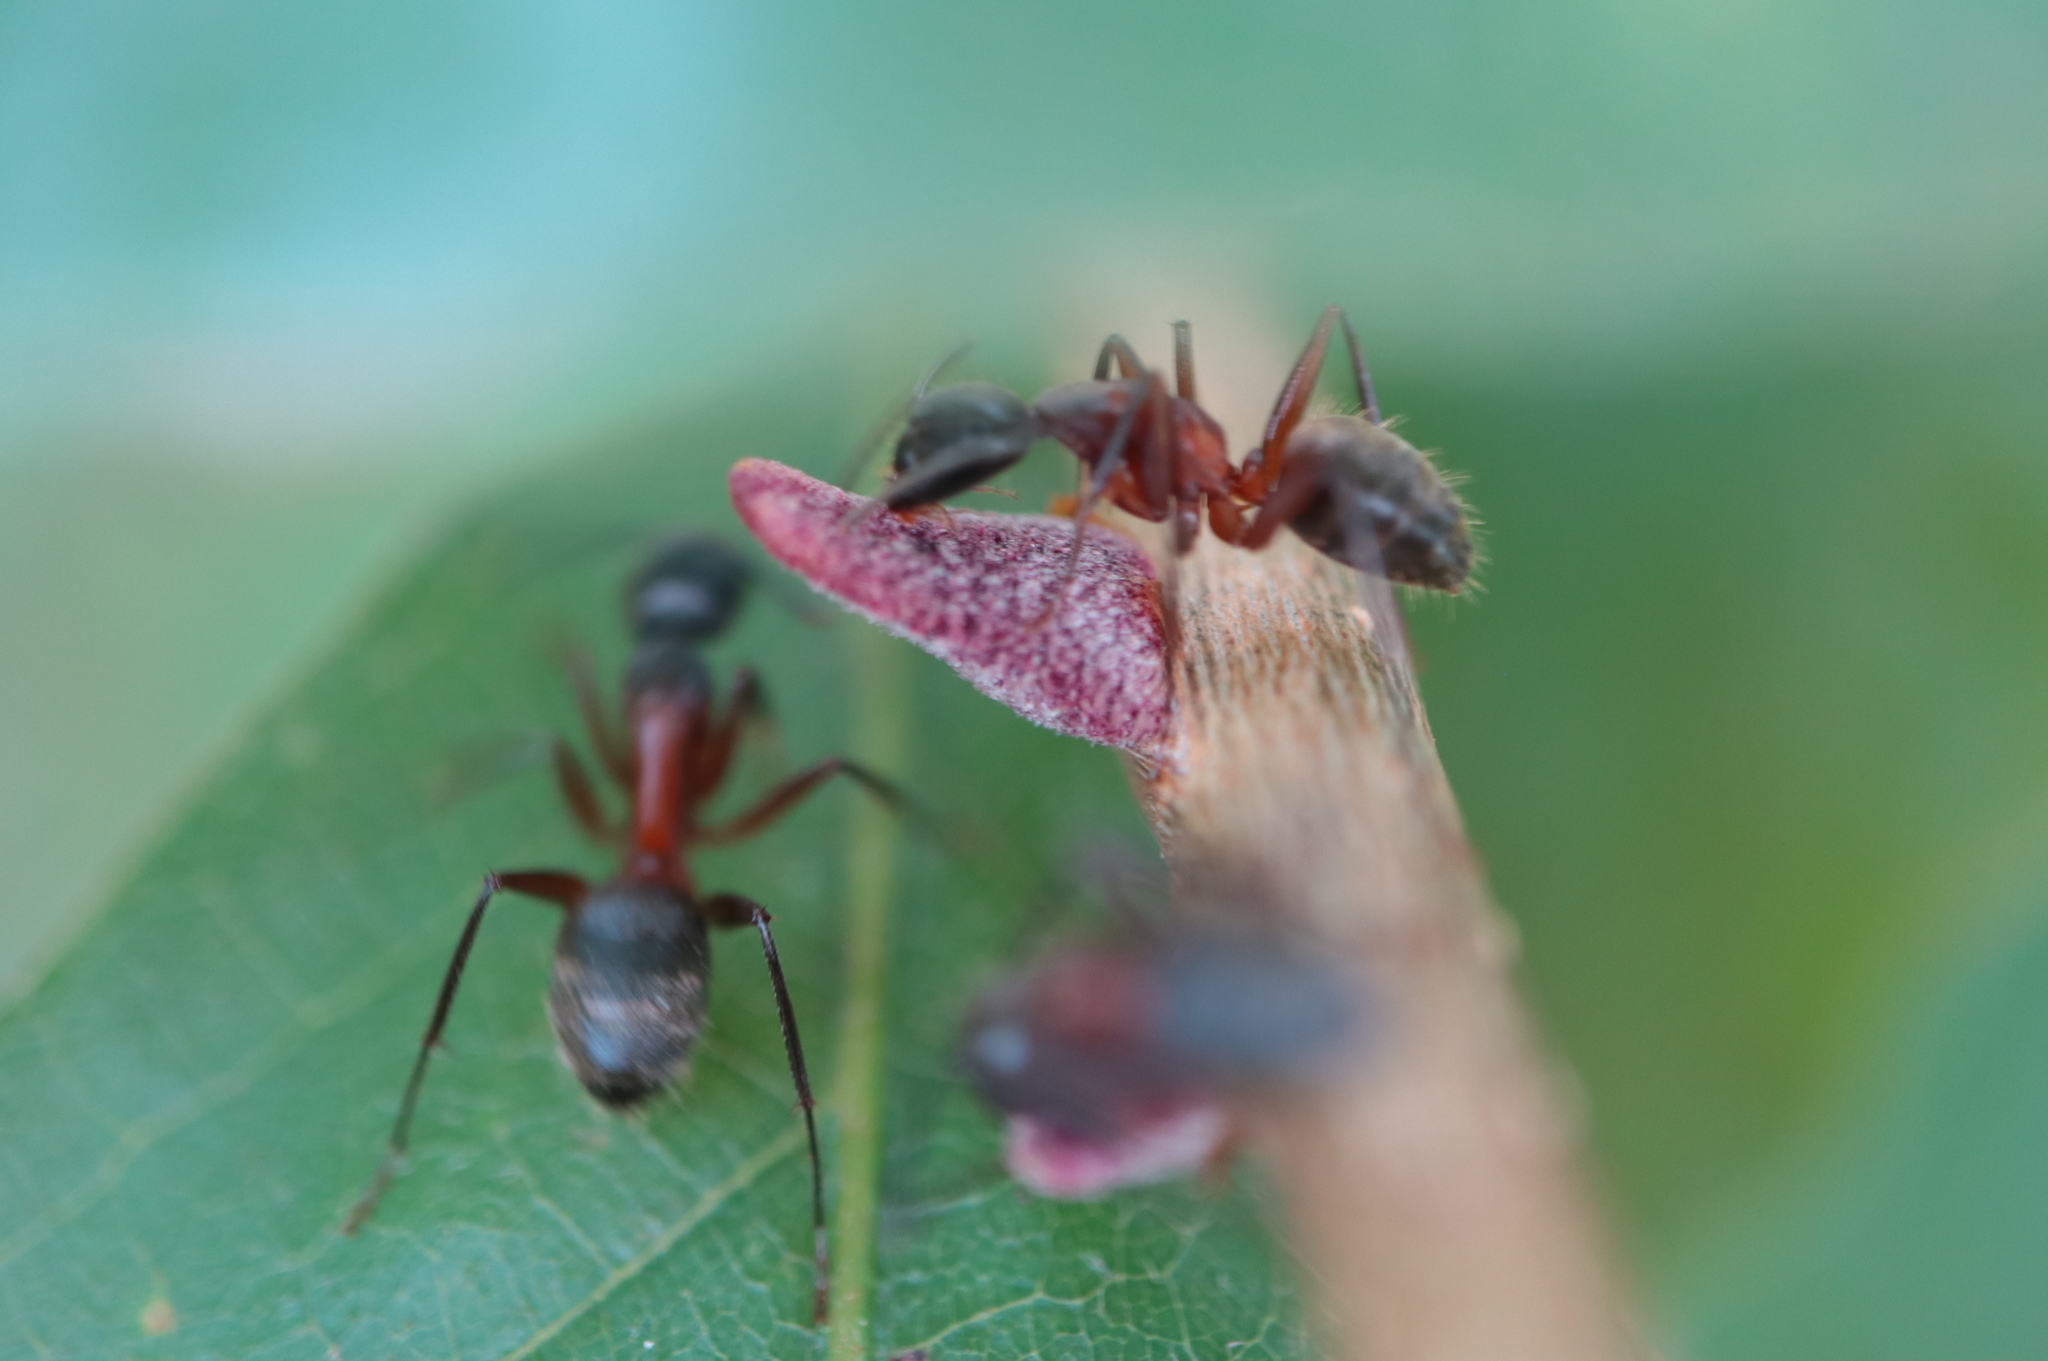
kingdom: Animalia
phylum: Arthropoda
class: Insecta
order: Hymenoptera
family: Cynipidae
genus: Disholcaspis
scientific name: Disholcaspis
